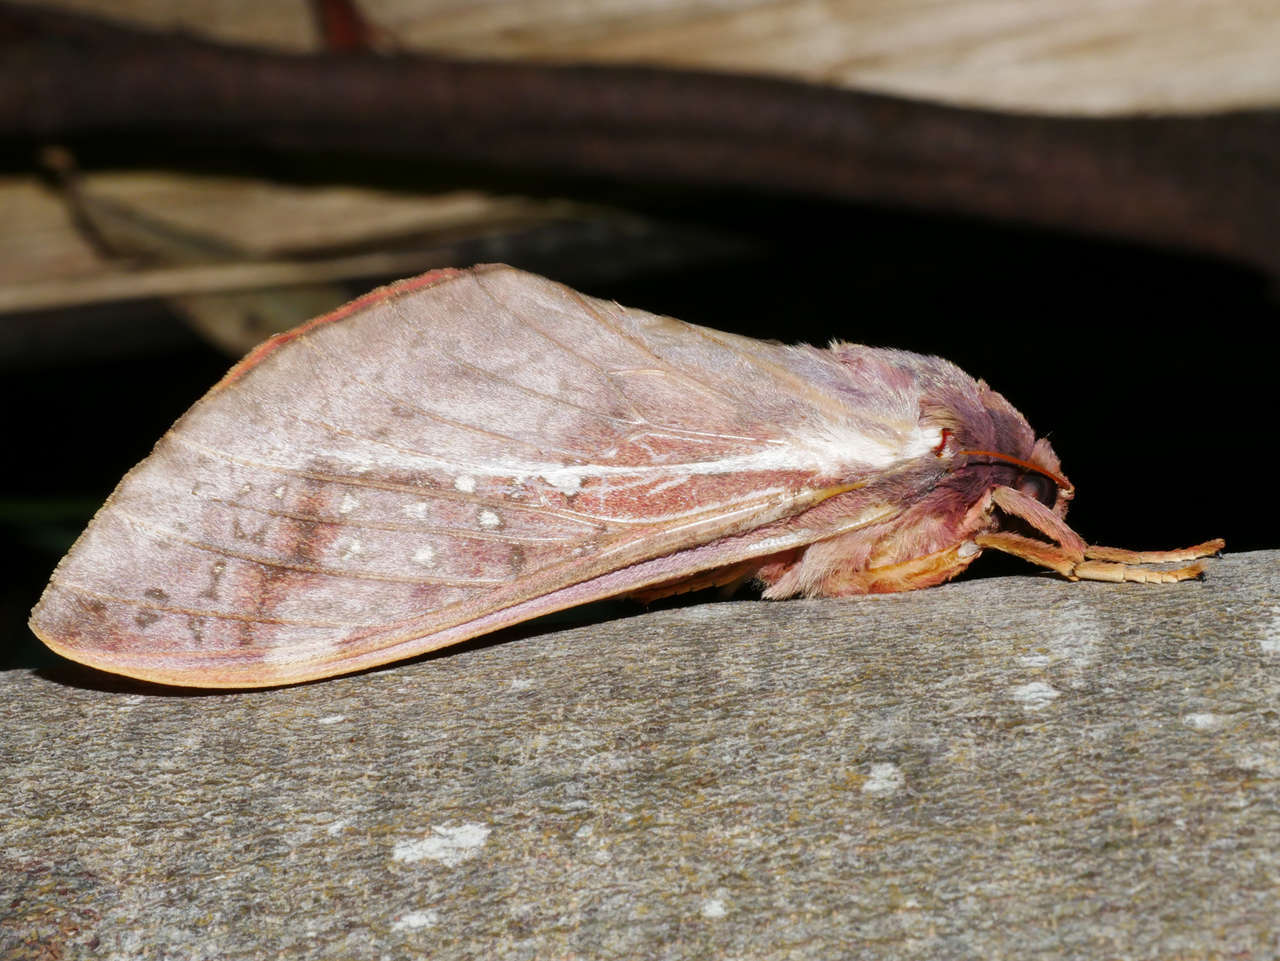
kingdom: Animalia
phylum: Arthropoda
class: Insecta
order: Lepidoptera
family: Hepialidae
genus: Oxycanus
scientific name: Oxycanus dirempta
